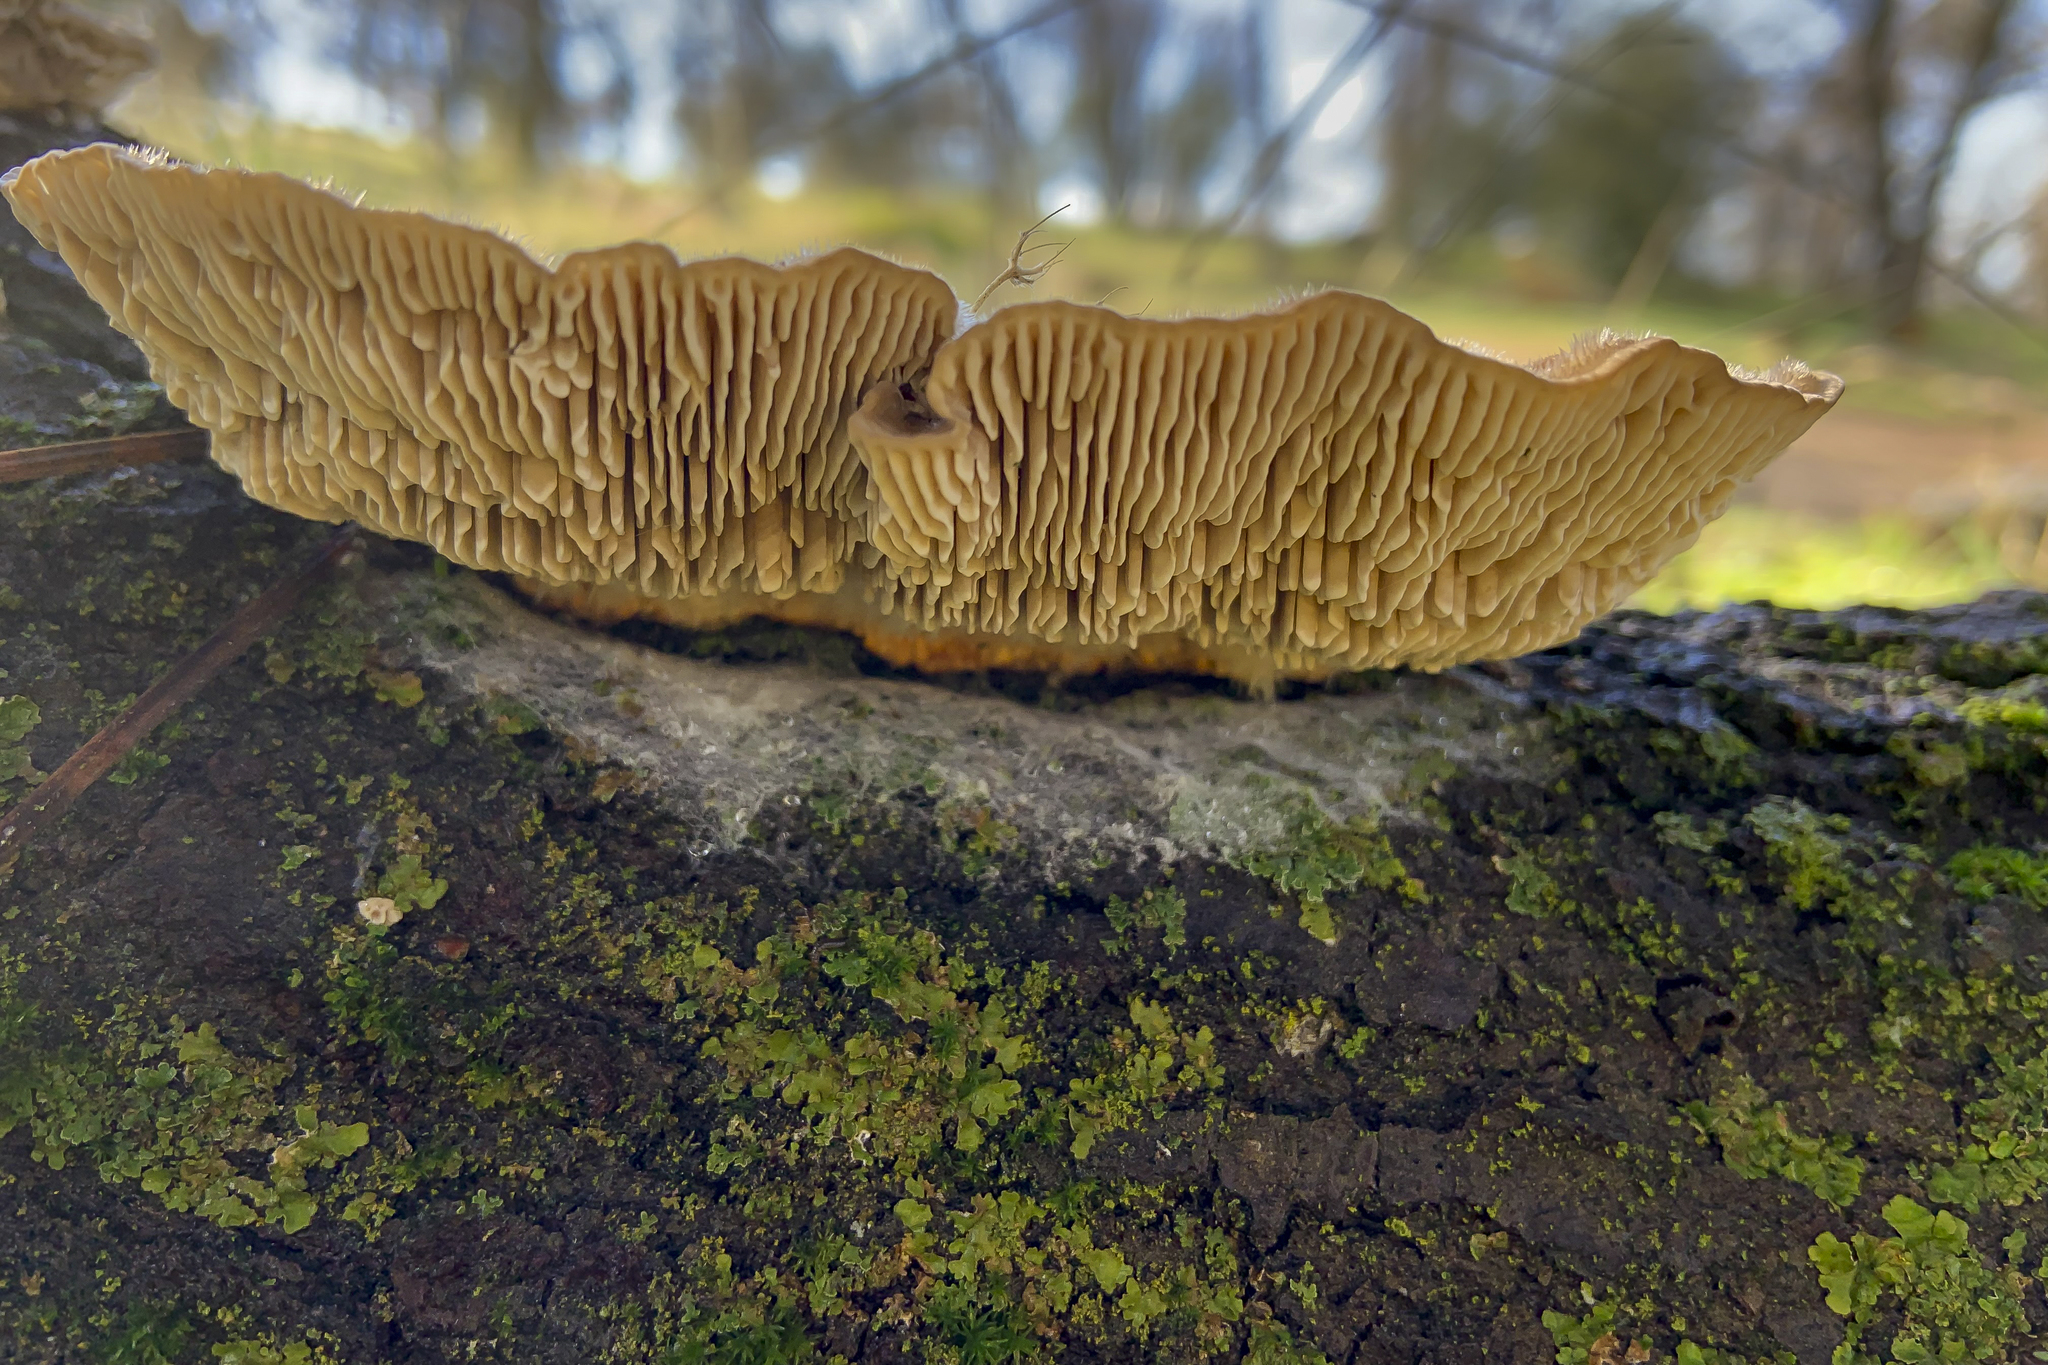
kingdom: Fungi
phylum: Basidiomycota
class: Agaricomycetes
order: Polyporales
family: Polyporaceae
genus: Lenzites
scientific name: Lenzites betulinus
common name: Birch mazegill
